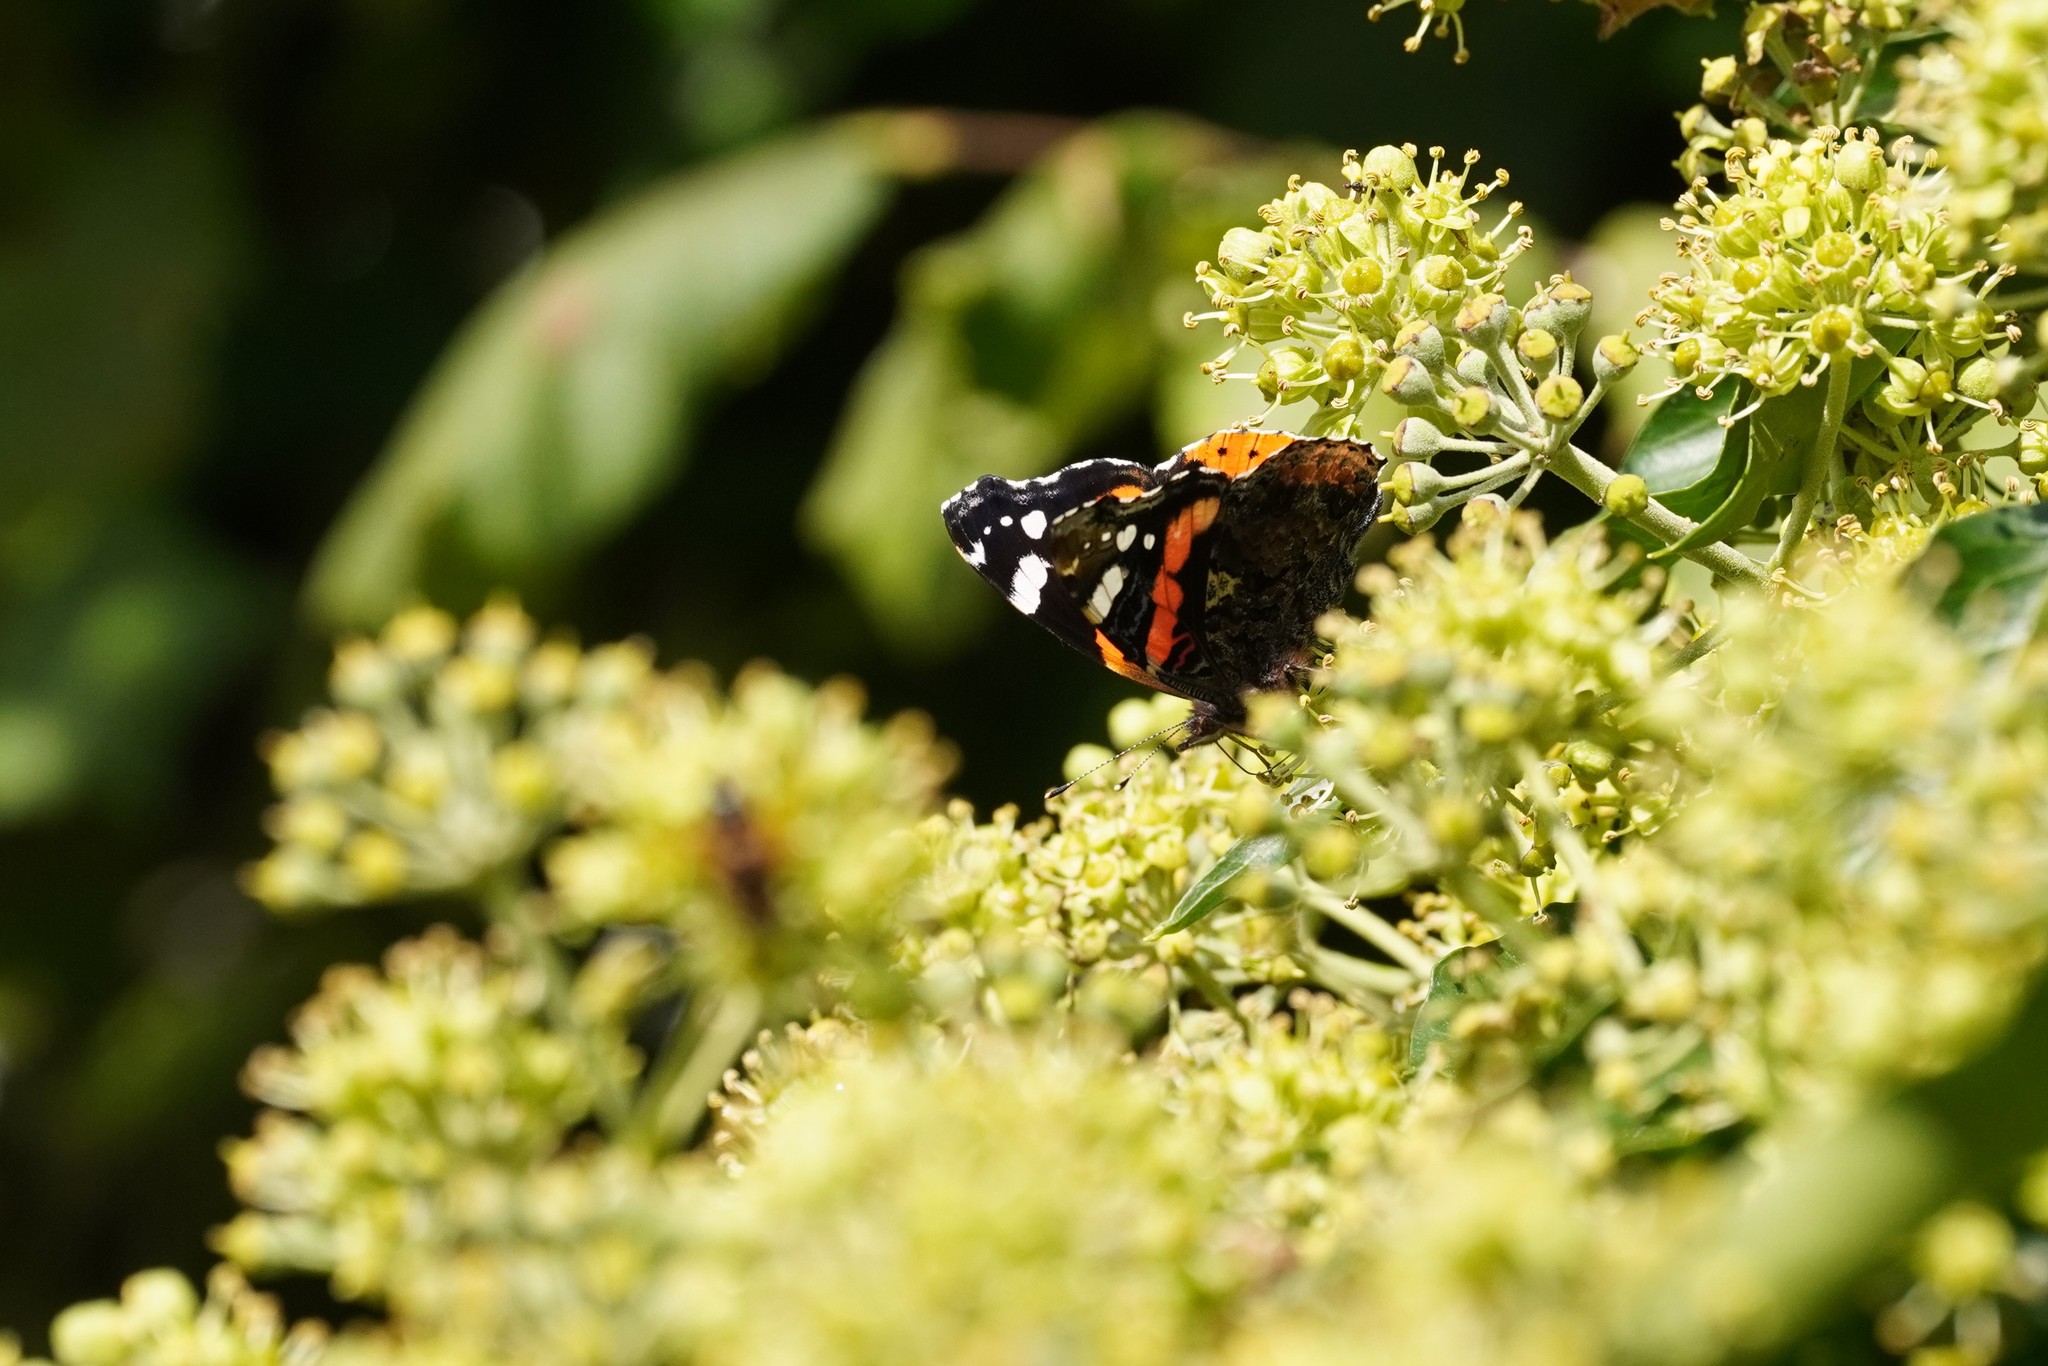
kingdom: Animalia
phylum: Arthropoda
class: Insecta
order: Lepidoptera
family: Nymphalidae
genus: Vanessa
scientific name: Vanessa atalanta
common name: Red admiral
